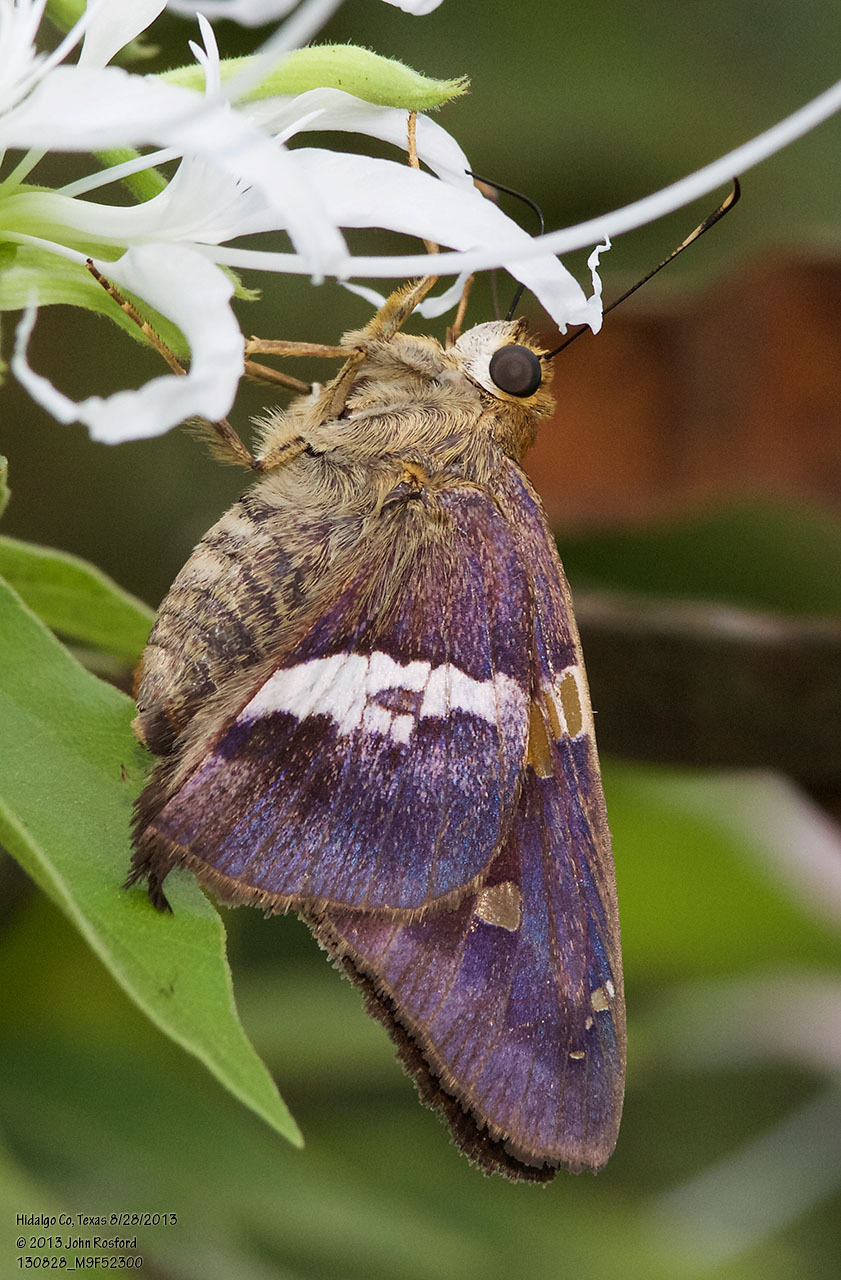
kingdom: Animalia
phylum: Arthropoda
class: Insecta
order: Lepidoptera
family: Hesperiidae
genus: Aguna
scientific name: Aguna asander
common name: Gold-spotted aguna
